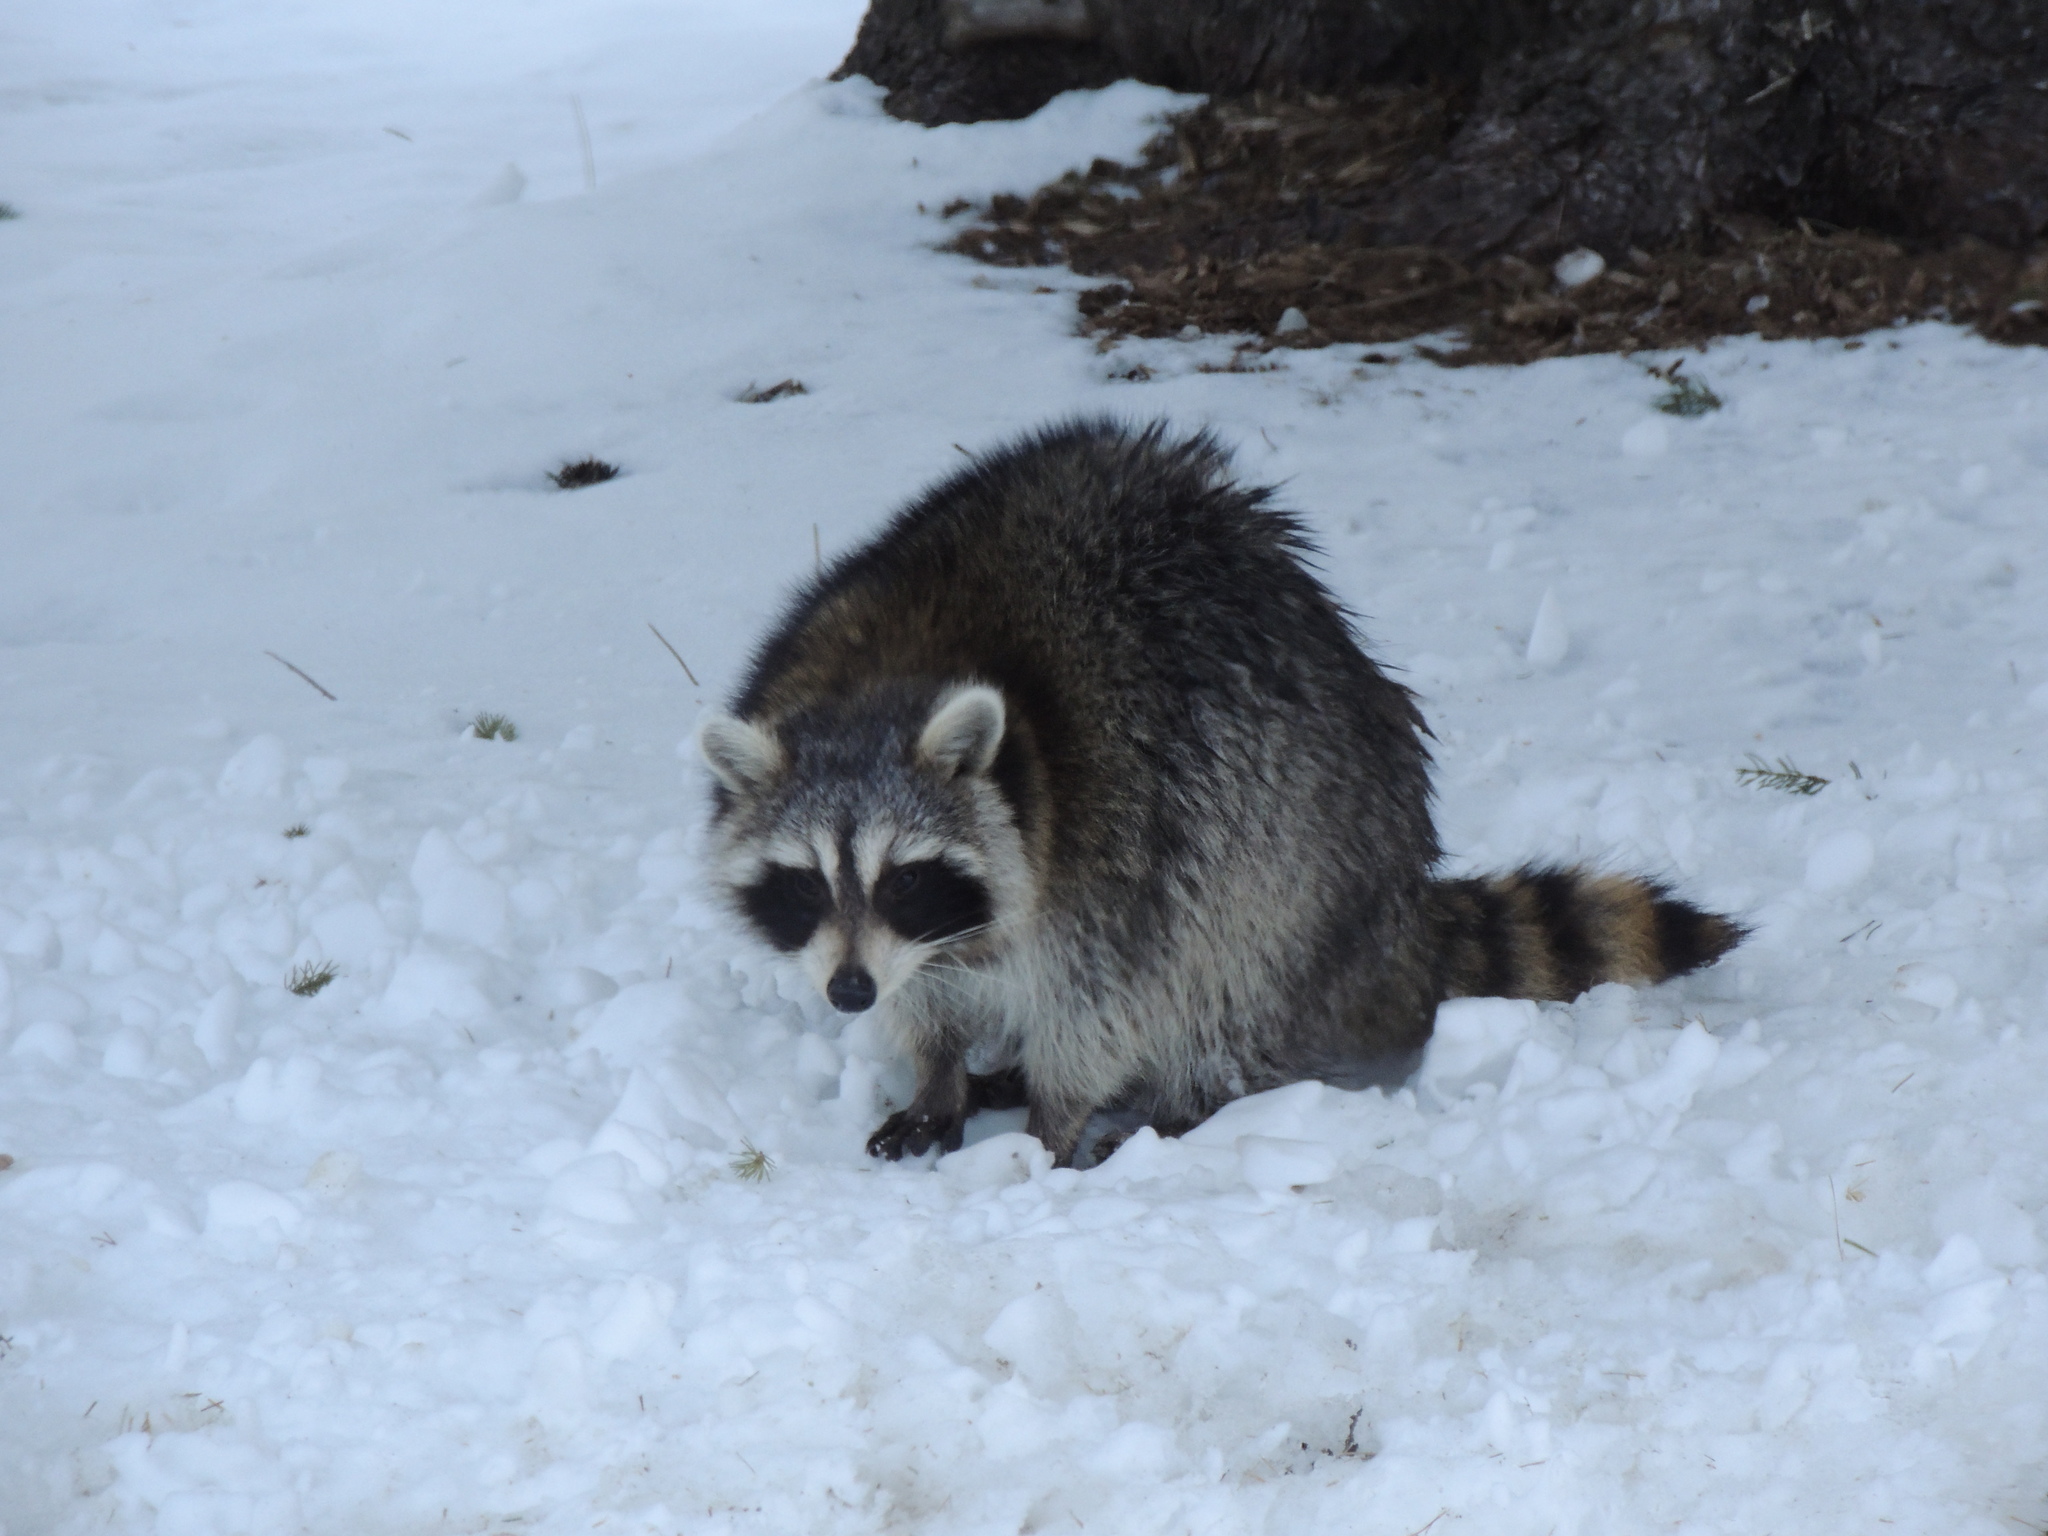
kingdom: Animalia
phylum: Chordata
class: Mammalia
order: Carnivora
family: Procyonidae
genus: Procyon
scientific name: Procyon lotor
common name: Raccoon
